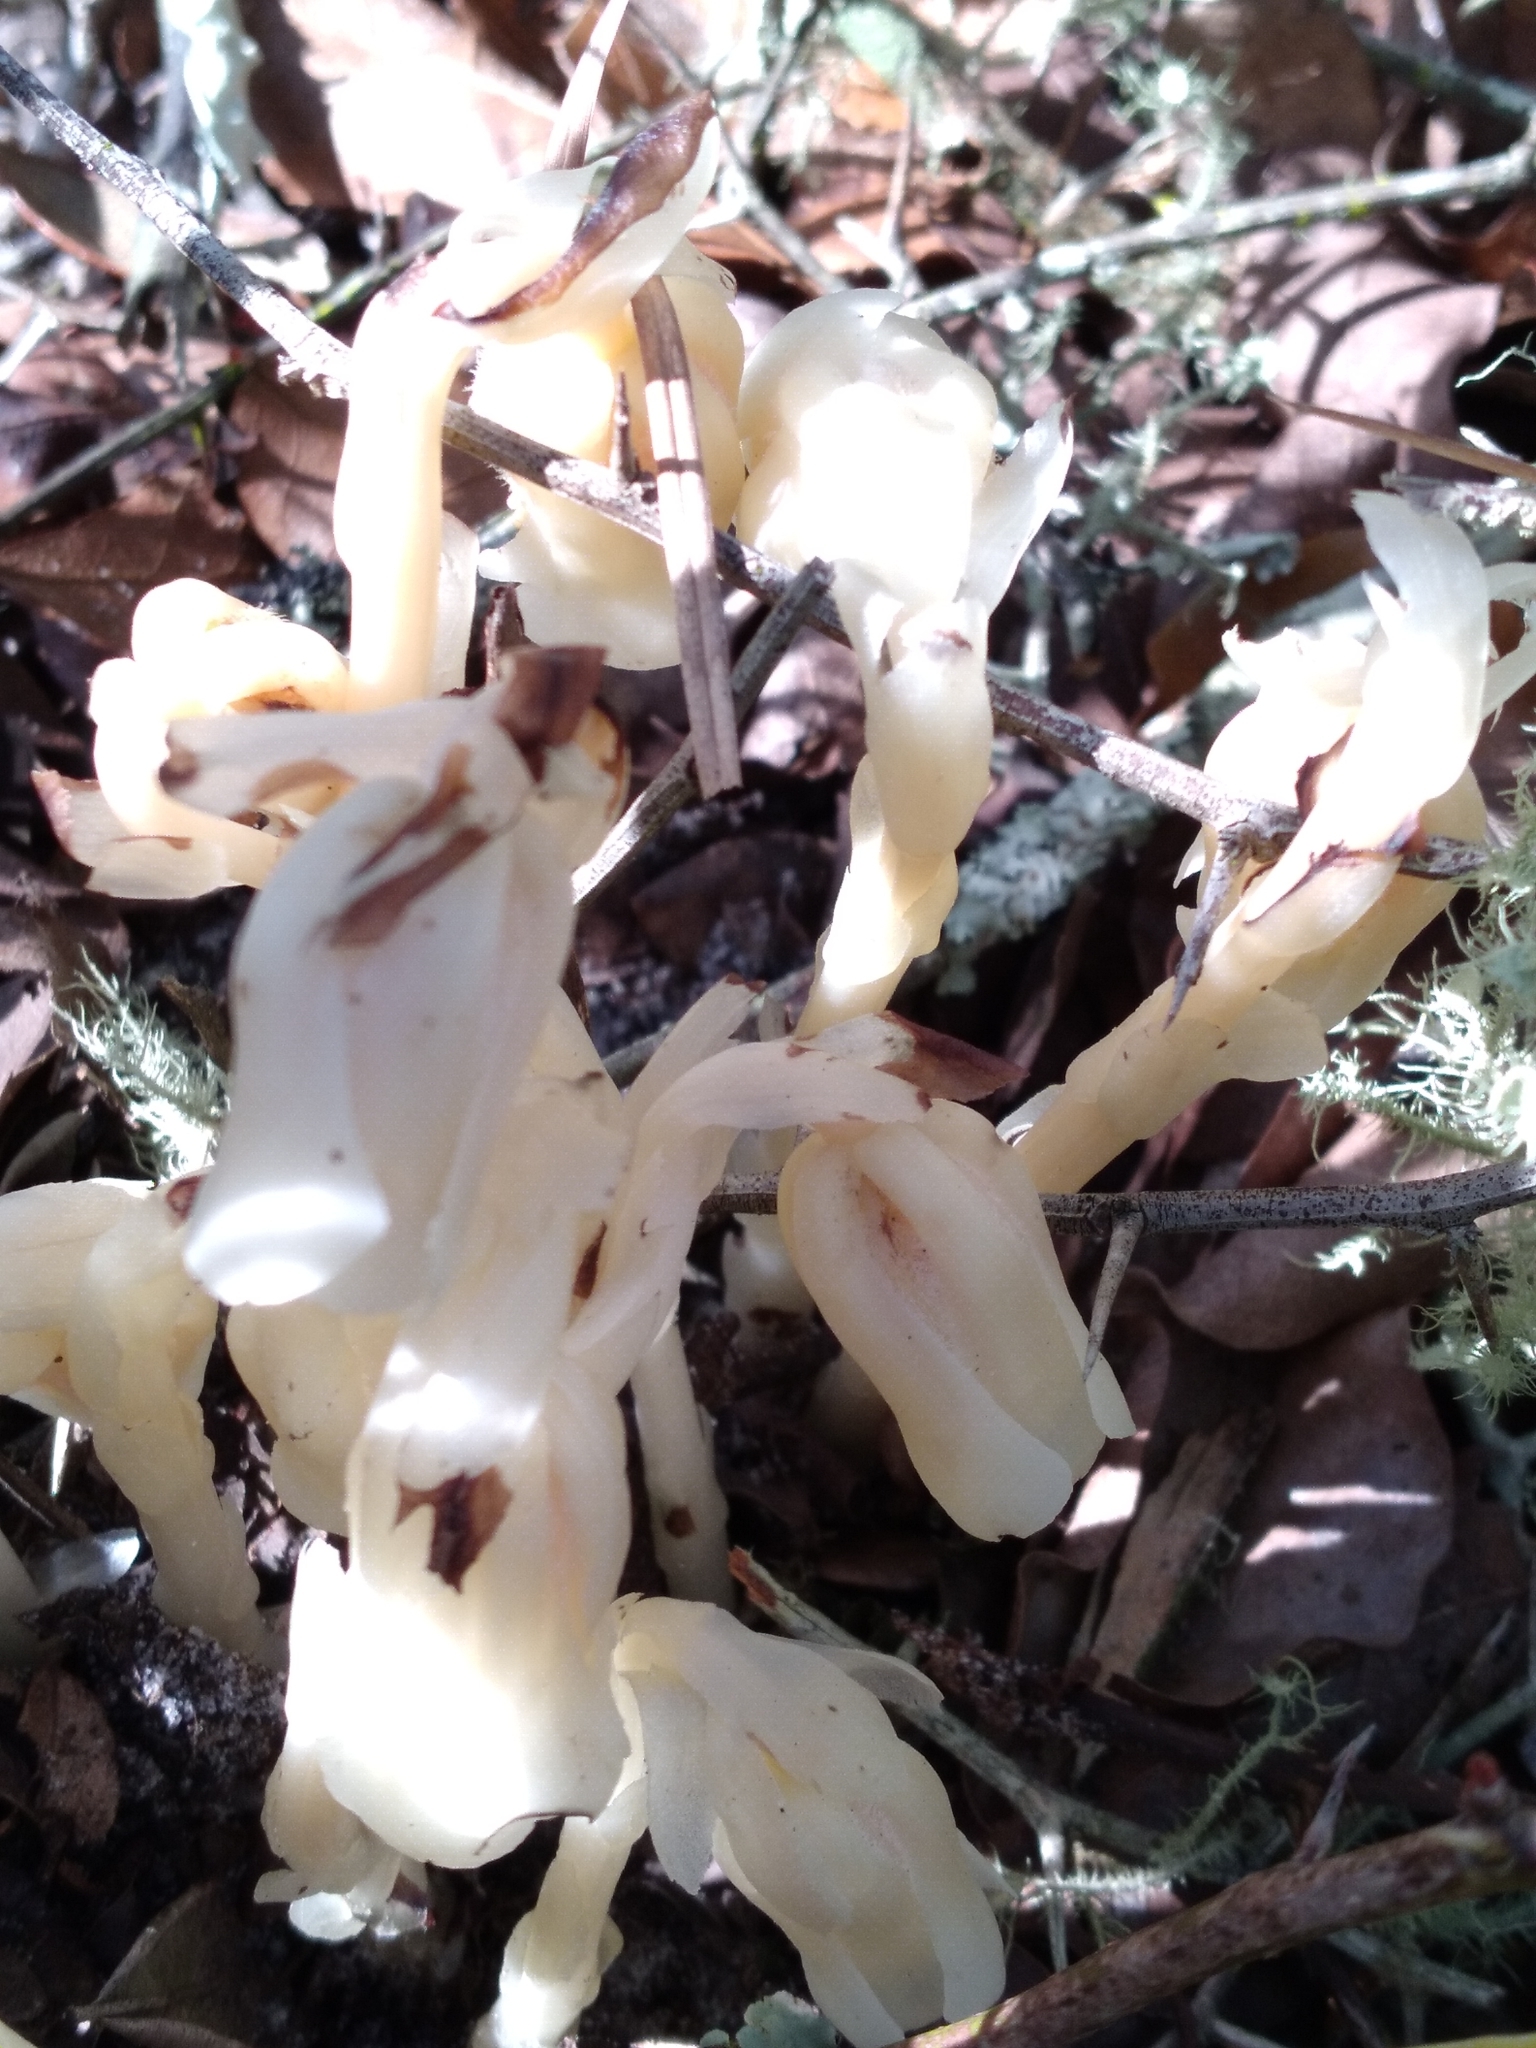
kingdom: Plantae
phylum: Tracheophyta
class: Magnoliopsida
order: Ericales
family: Ericaceae
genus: Monotropa
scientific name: Monotropa uniflora
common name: Convulsion root
